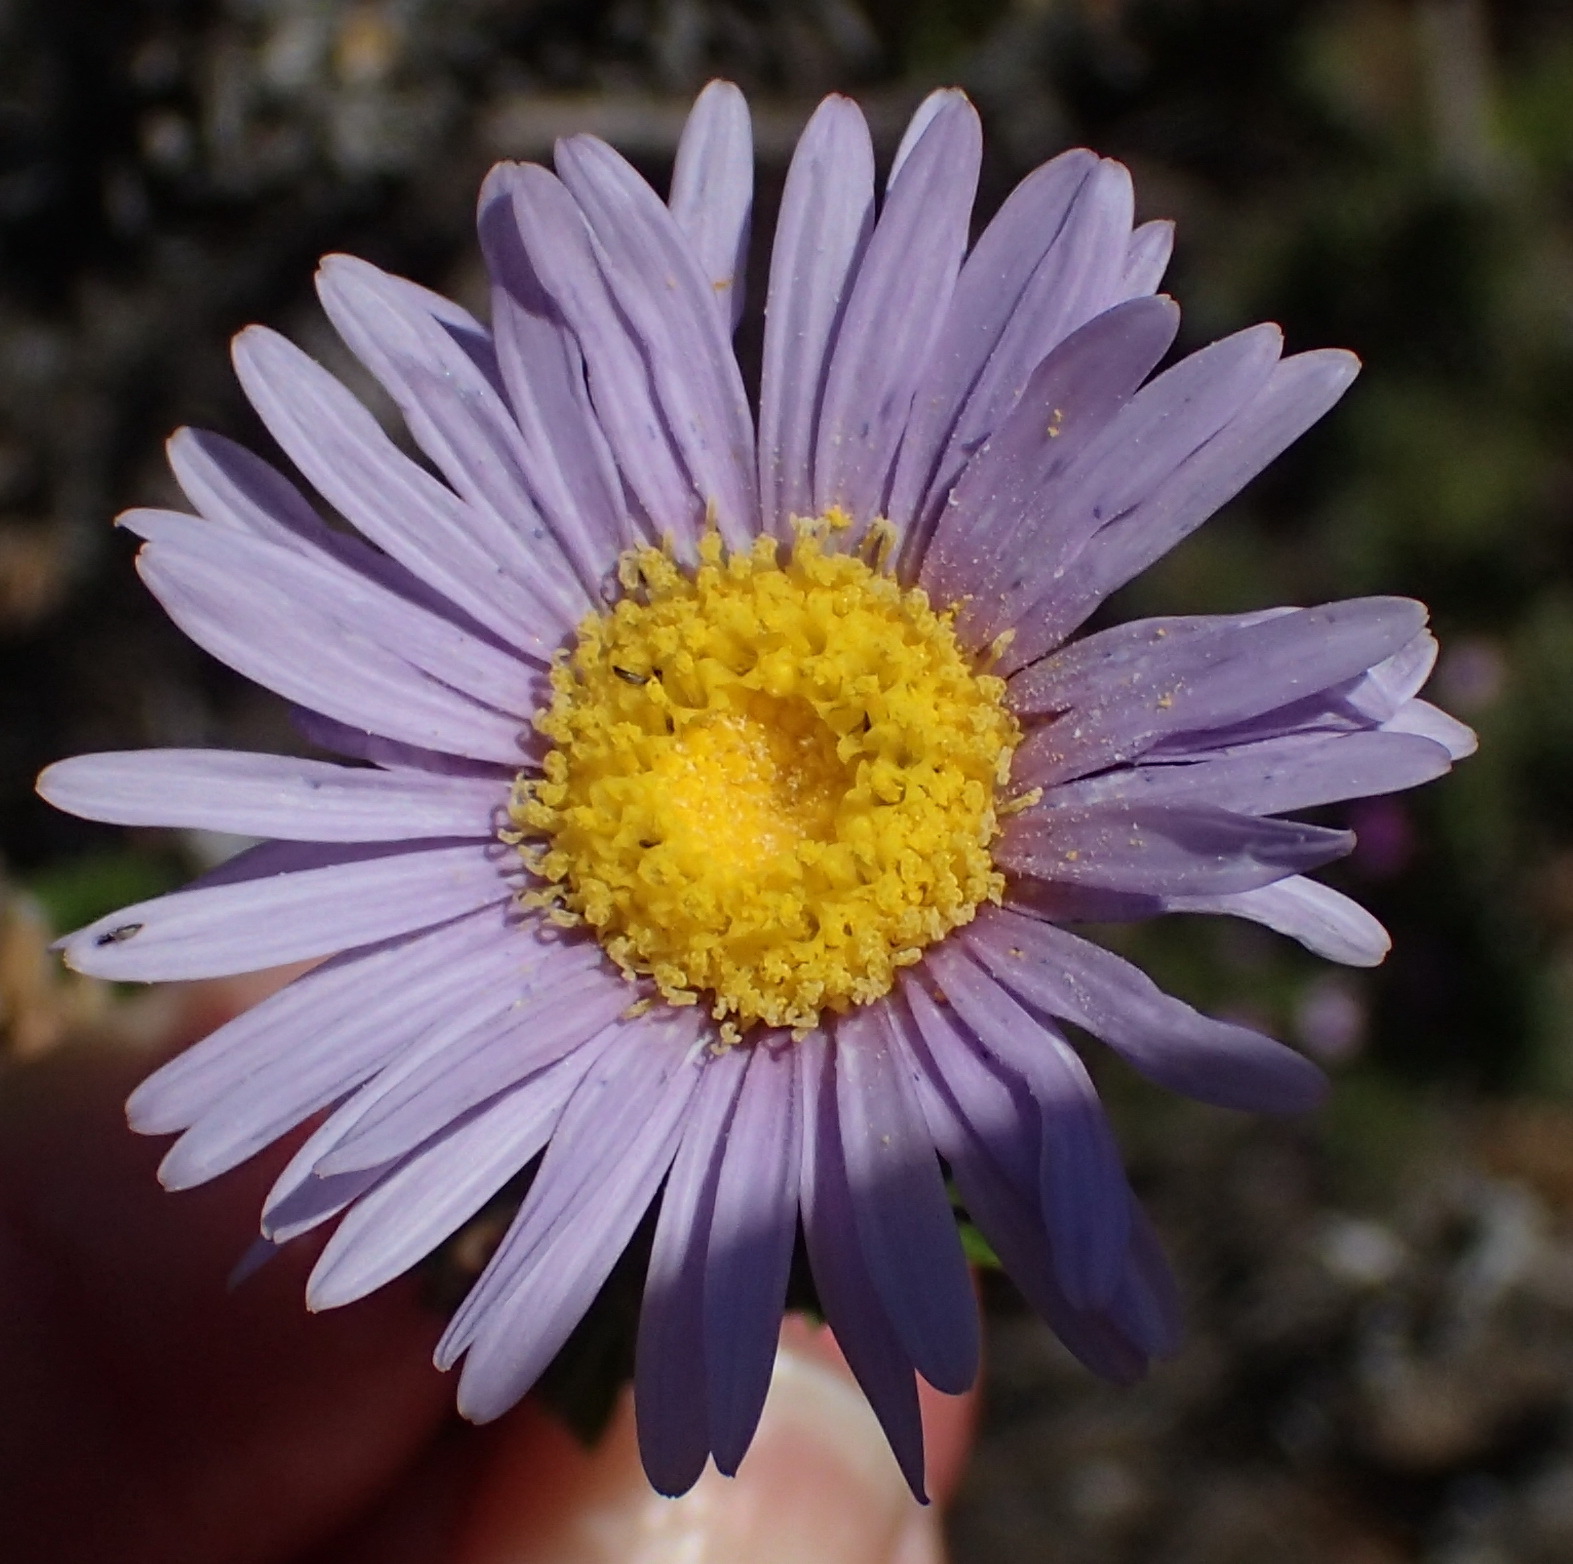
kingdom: Plantae
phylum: Tracheophyta
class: Magnoliopsida
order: Asterales
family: Asteraceae
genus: Felicia
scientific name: Felicia echinata
